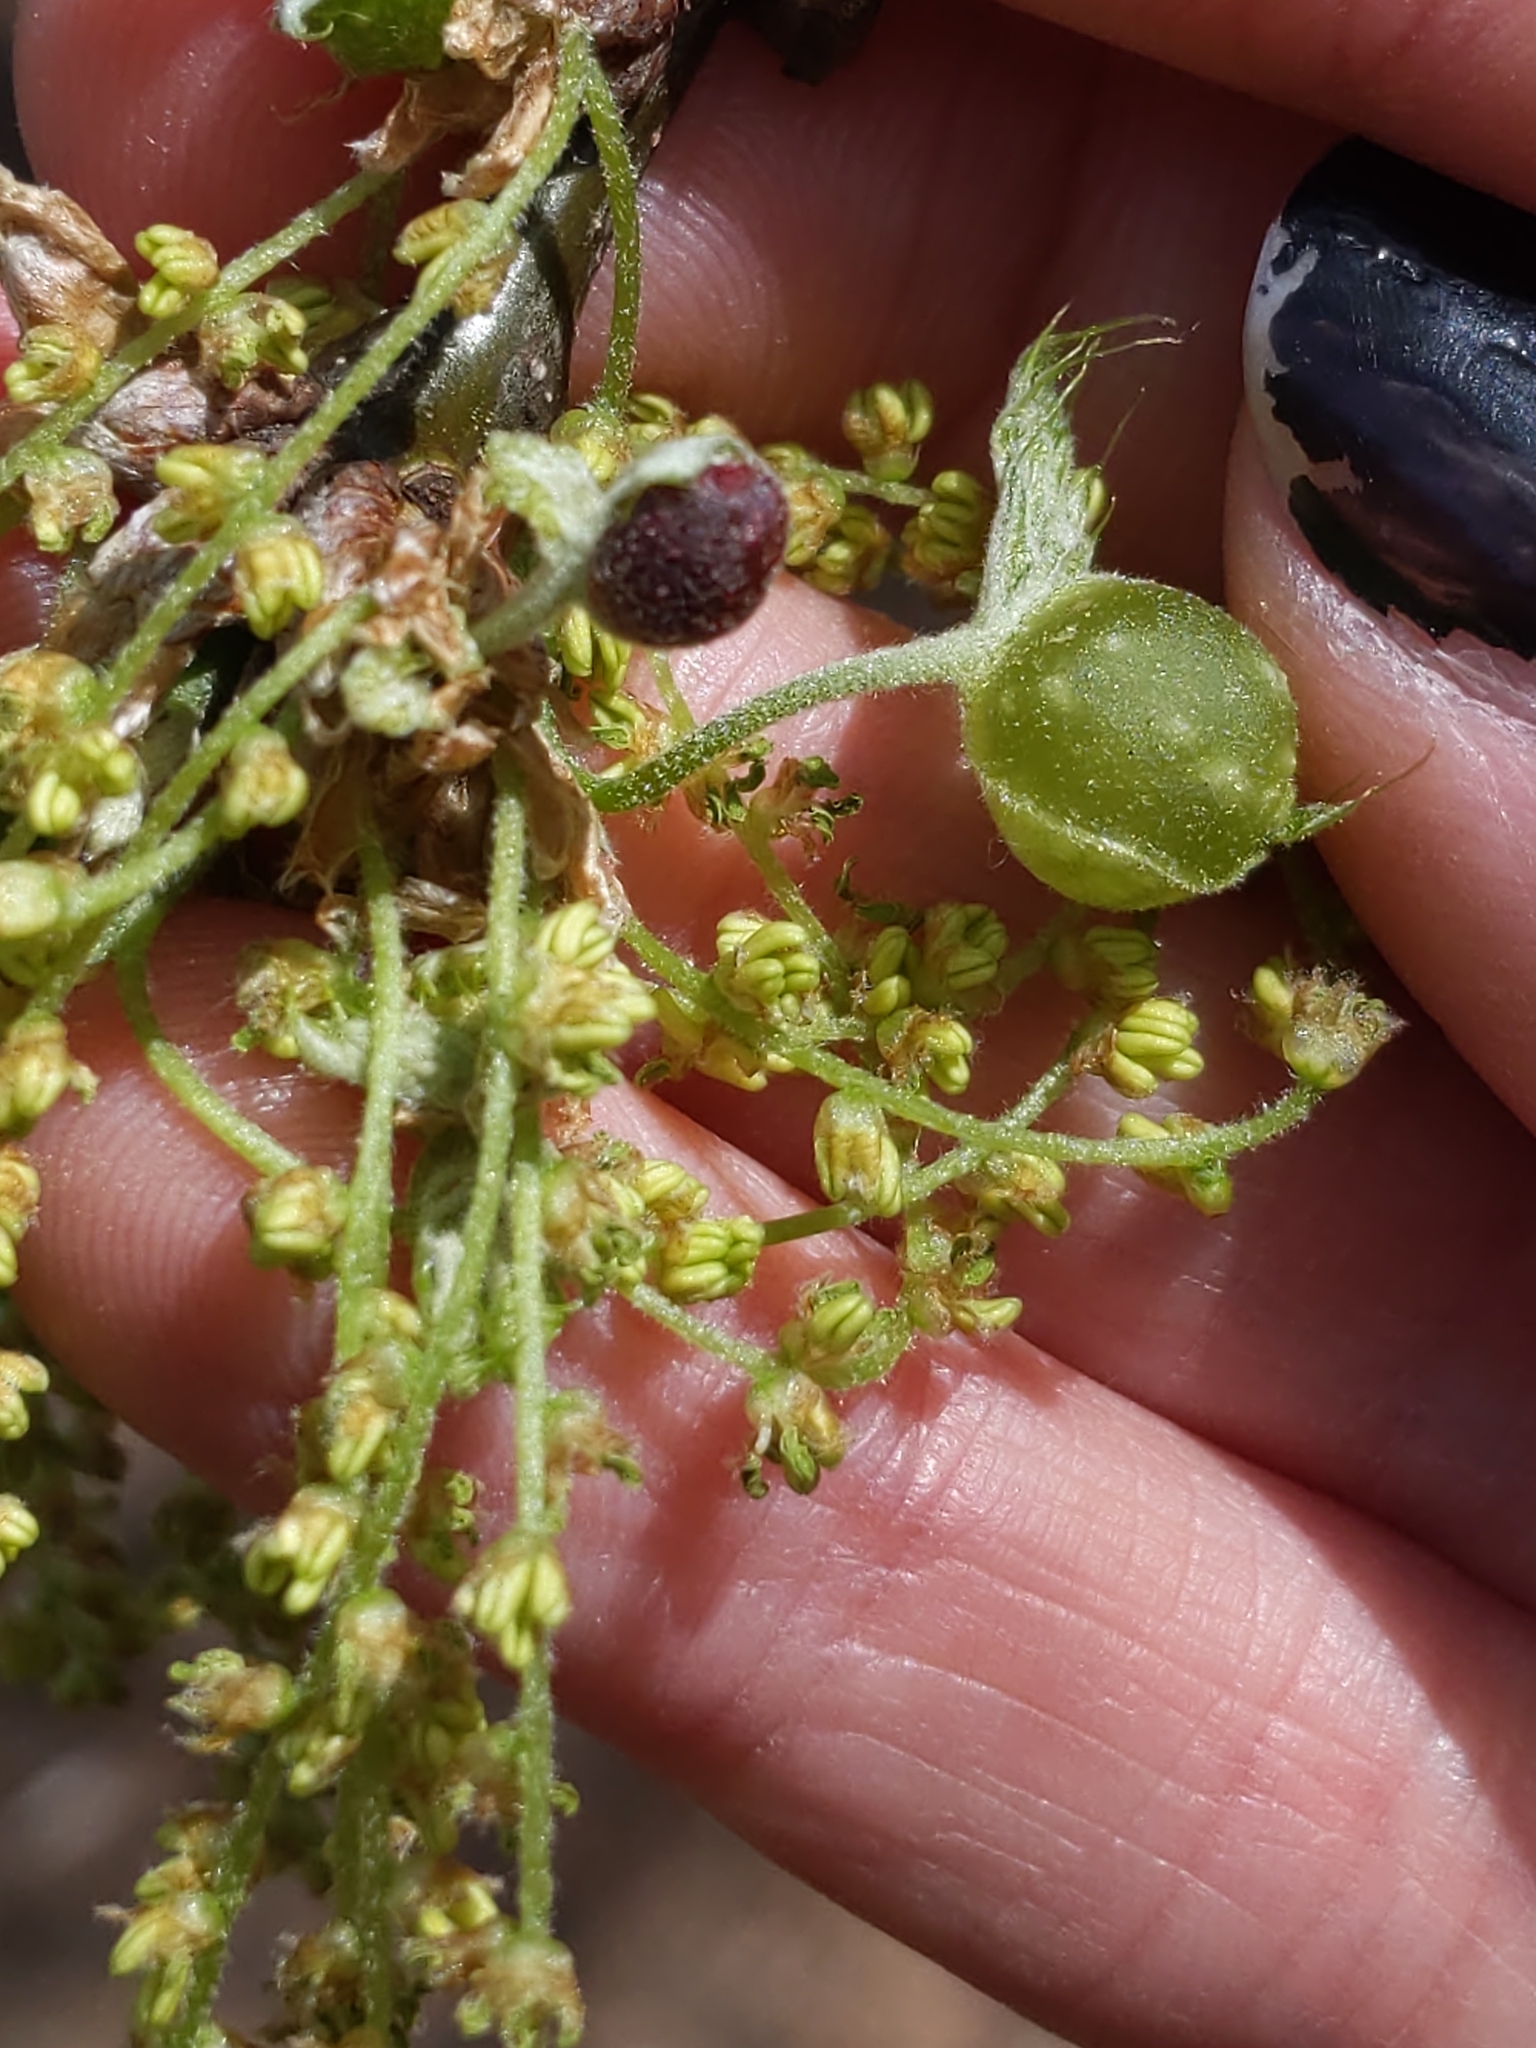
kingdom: Animalia
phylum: Arthropoda
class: Insecta
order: Hymenoptera
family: Cynipidae
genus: Dryocosmus
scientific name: Dryocosmus quercuspalustris
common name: Succulent oak gall wasp
